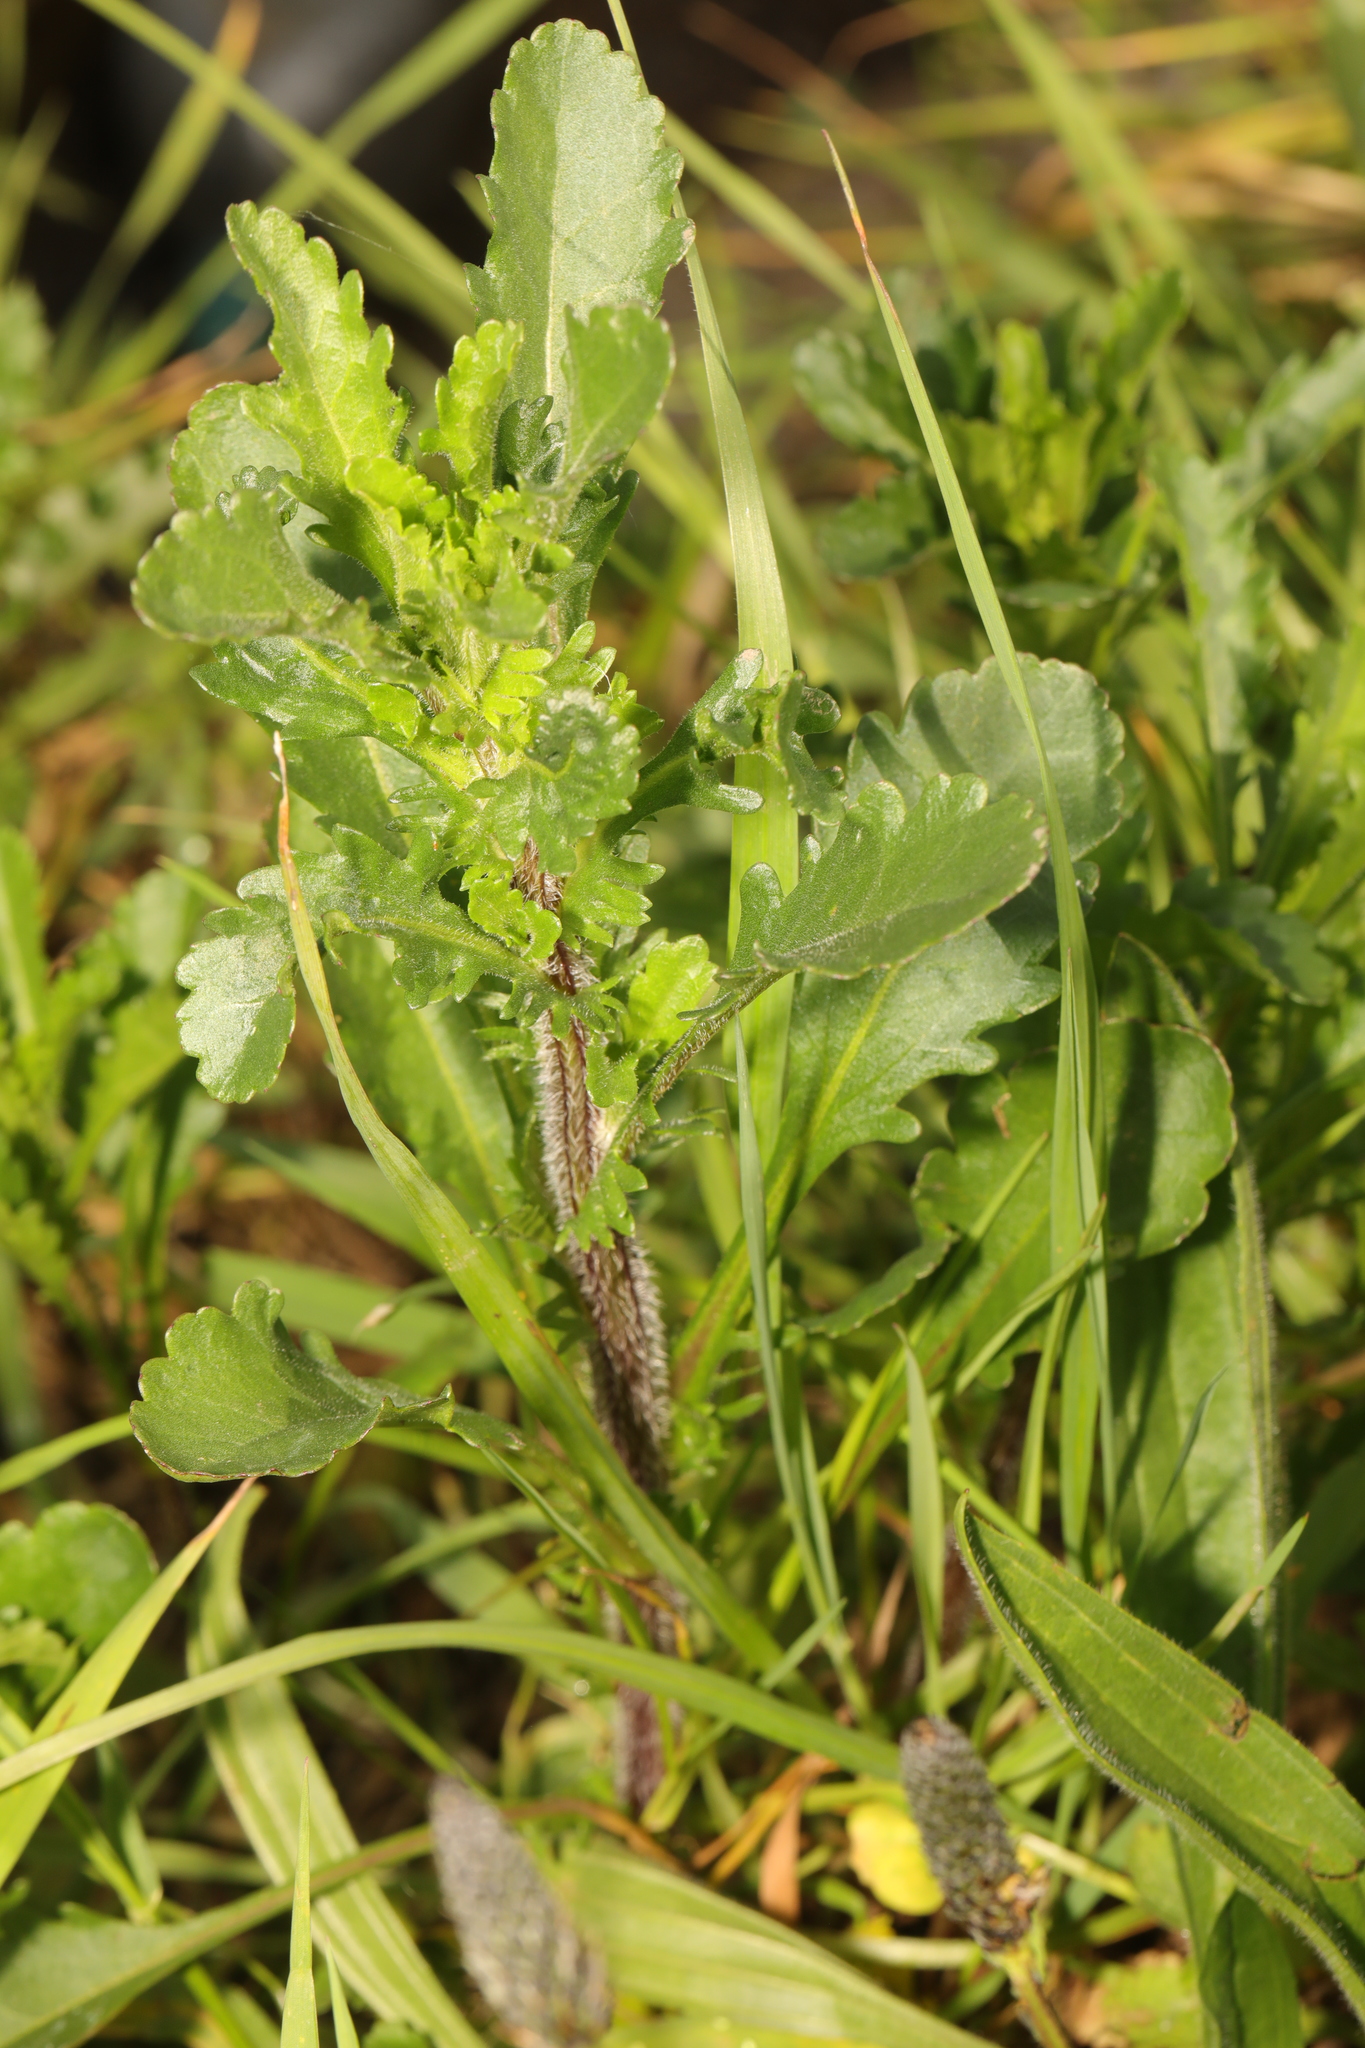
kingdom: Plantae
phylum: Tracheophyta
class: Magnoliopsida
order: Asterales
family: Asteraceae
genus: Leucanthemum
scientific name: Leucanthemum vulgare
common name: Oxeye daisy
